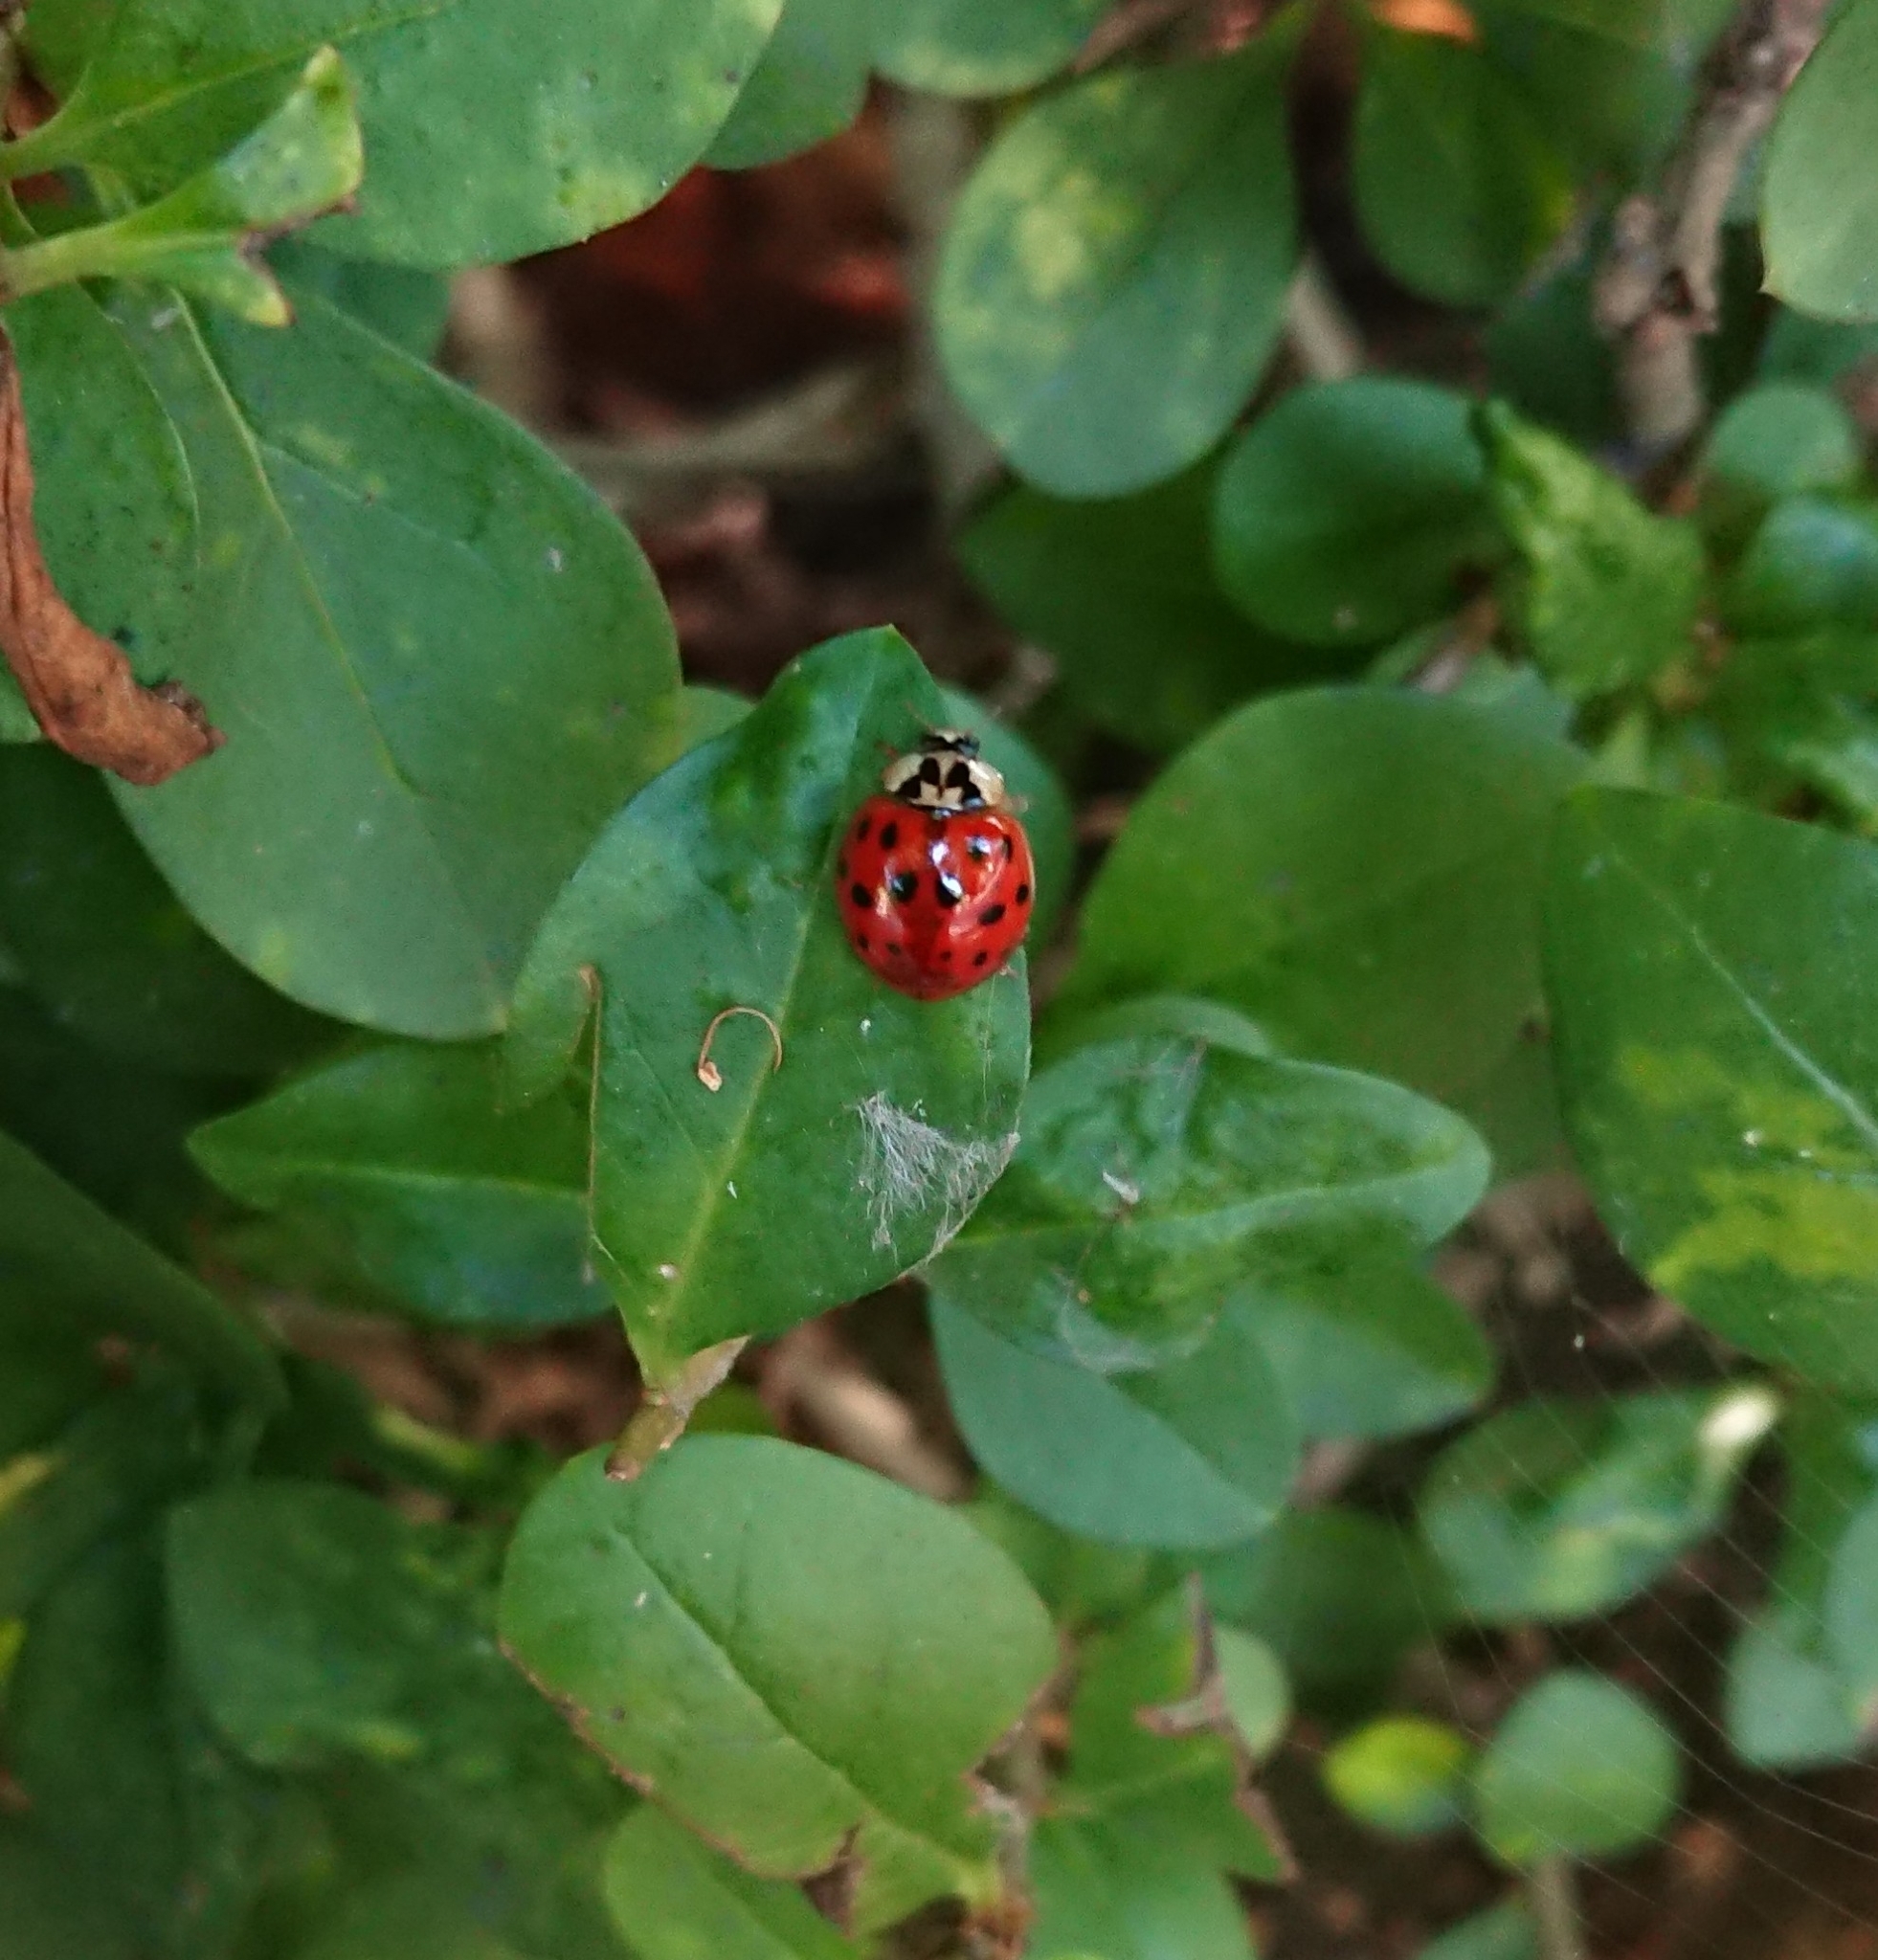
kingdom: Animalia
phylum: Arthropoda
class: Insecta
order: Coleoptera
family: Coccinellidae
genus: Harmonia
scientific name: Harmonia axyridis
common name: Harlequin ladybird
